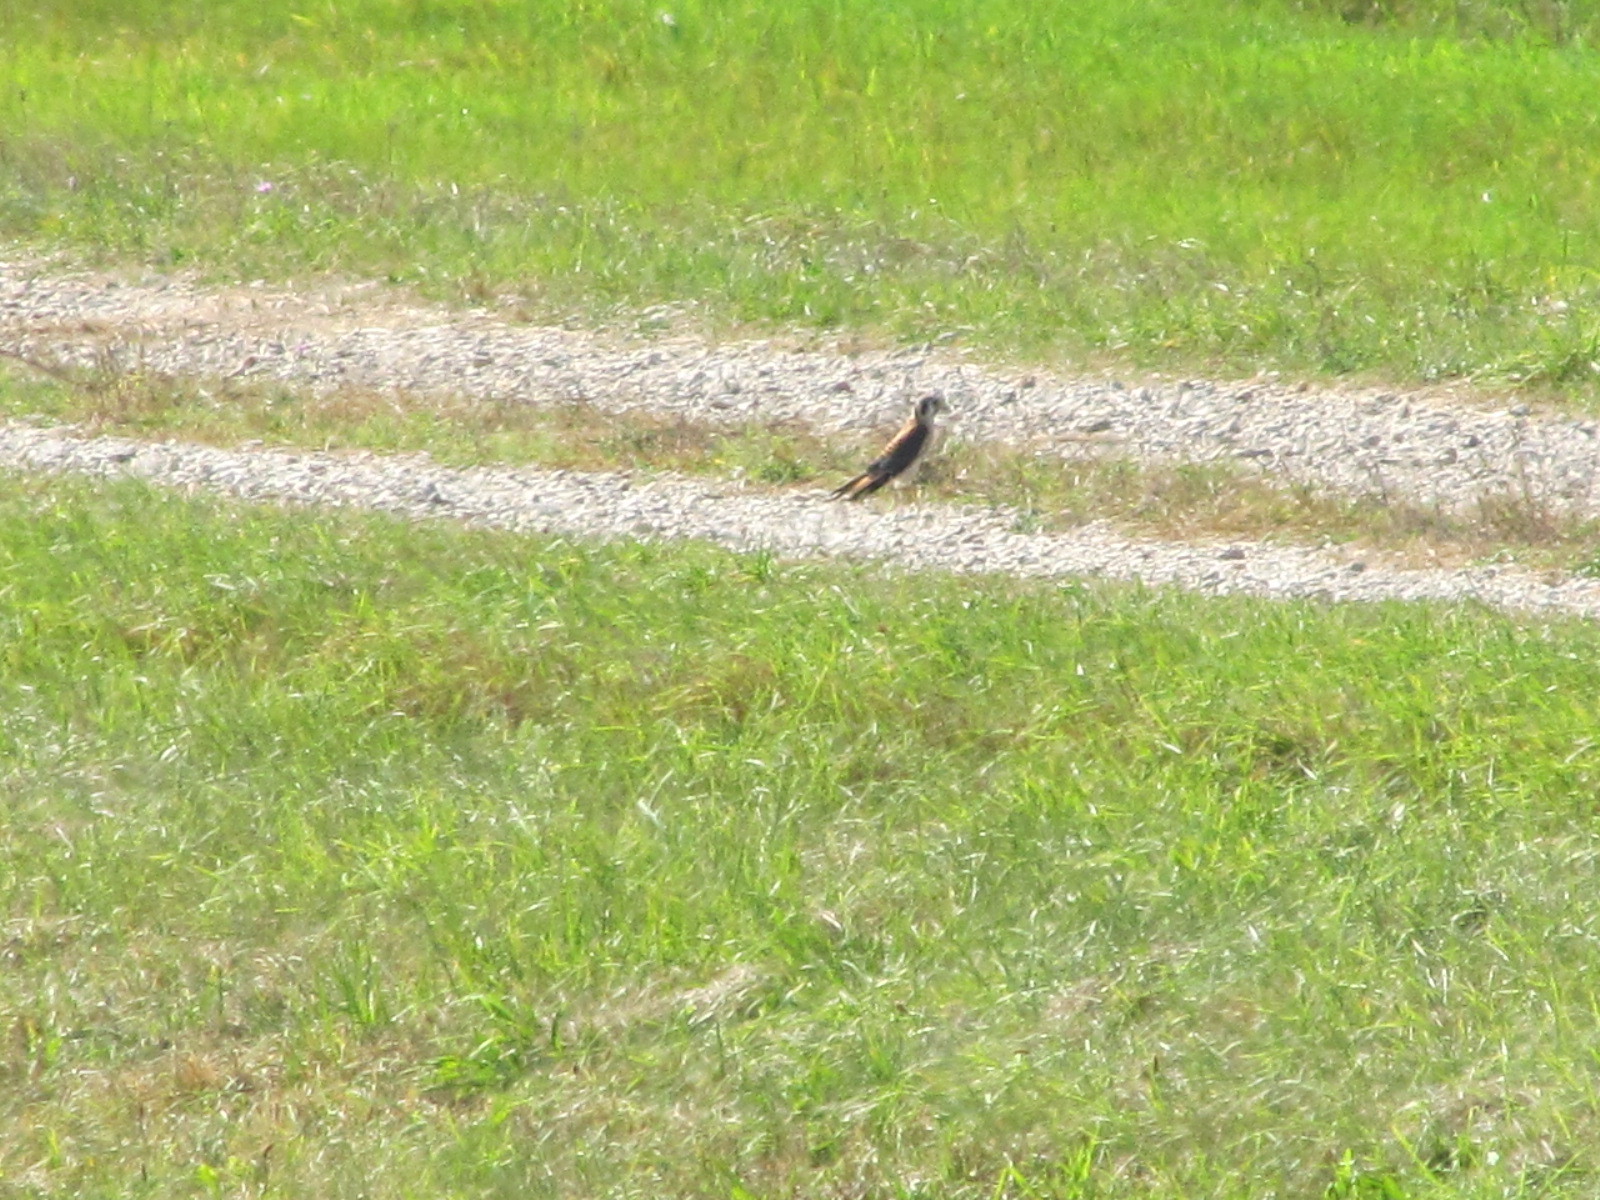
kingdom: Animalia
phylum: Chordata
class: Aves
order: Falconiformes
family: Falconidae
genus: Falco
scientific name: Falco sparverius
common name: American kestrel
